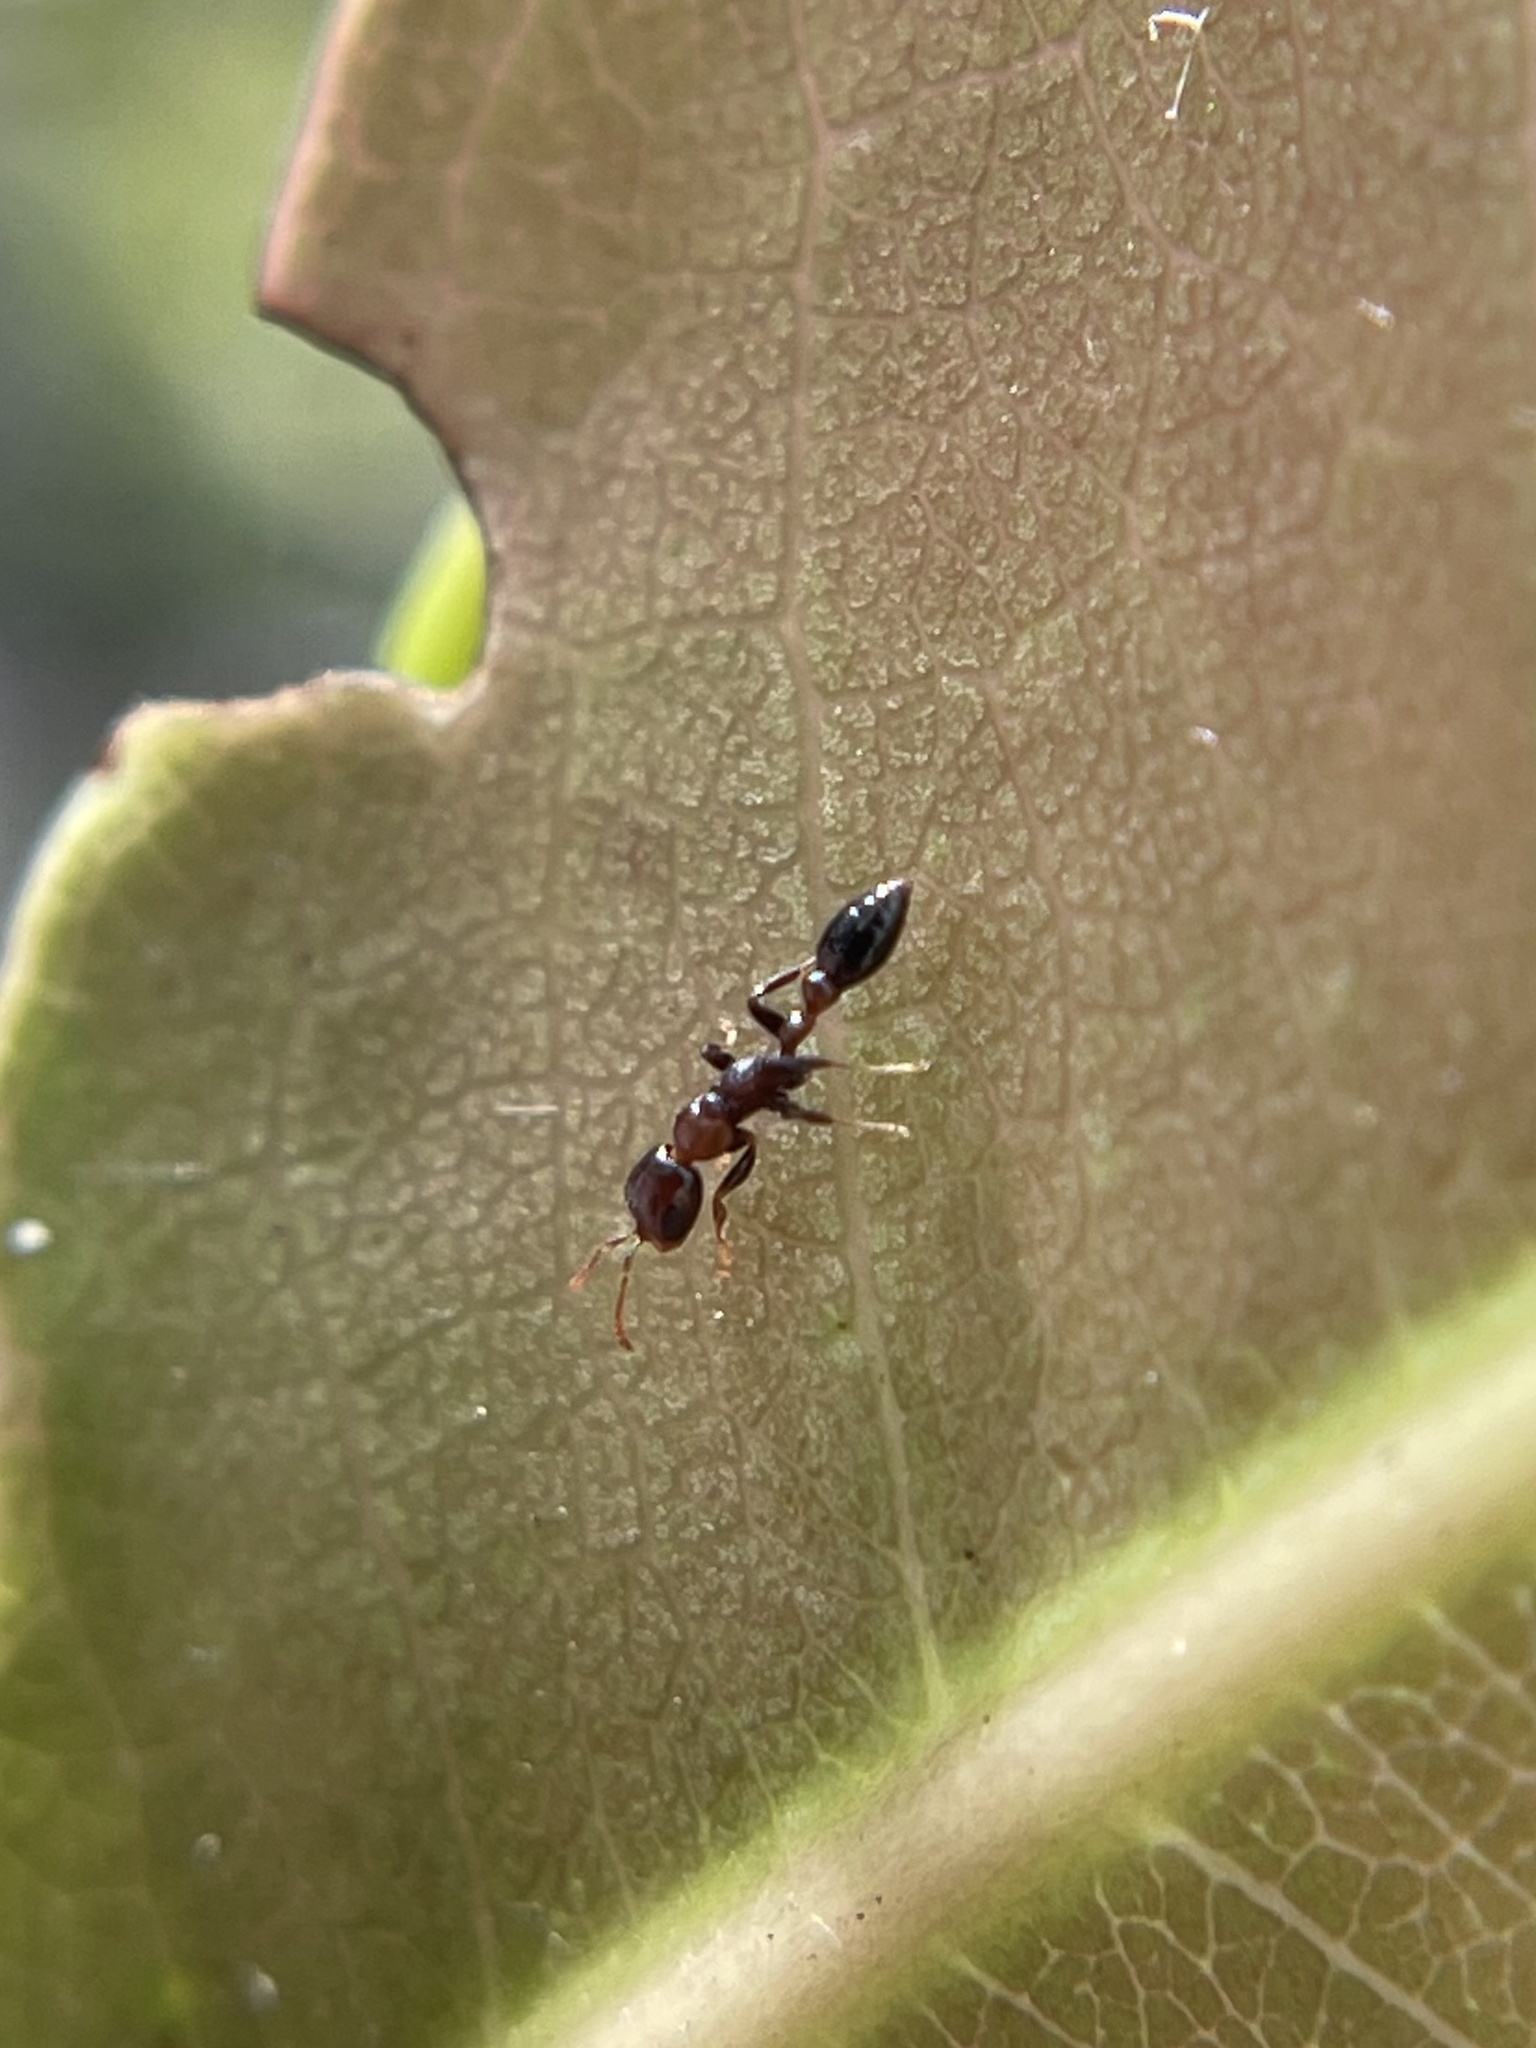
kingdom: Animalia
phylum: Arthropoda
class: Insecta
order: Hymenoptera
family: Formicidae
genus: Pseudomyrmex
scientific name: Pseudomyrmex ejectus
